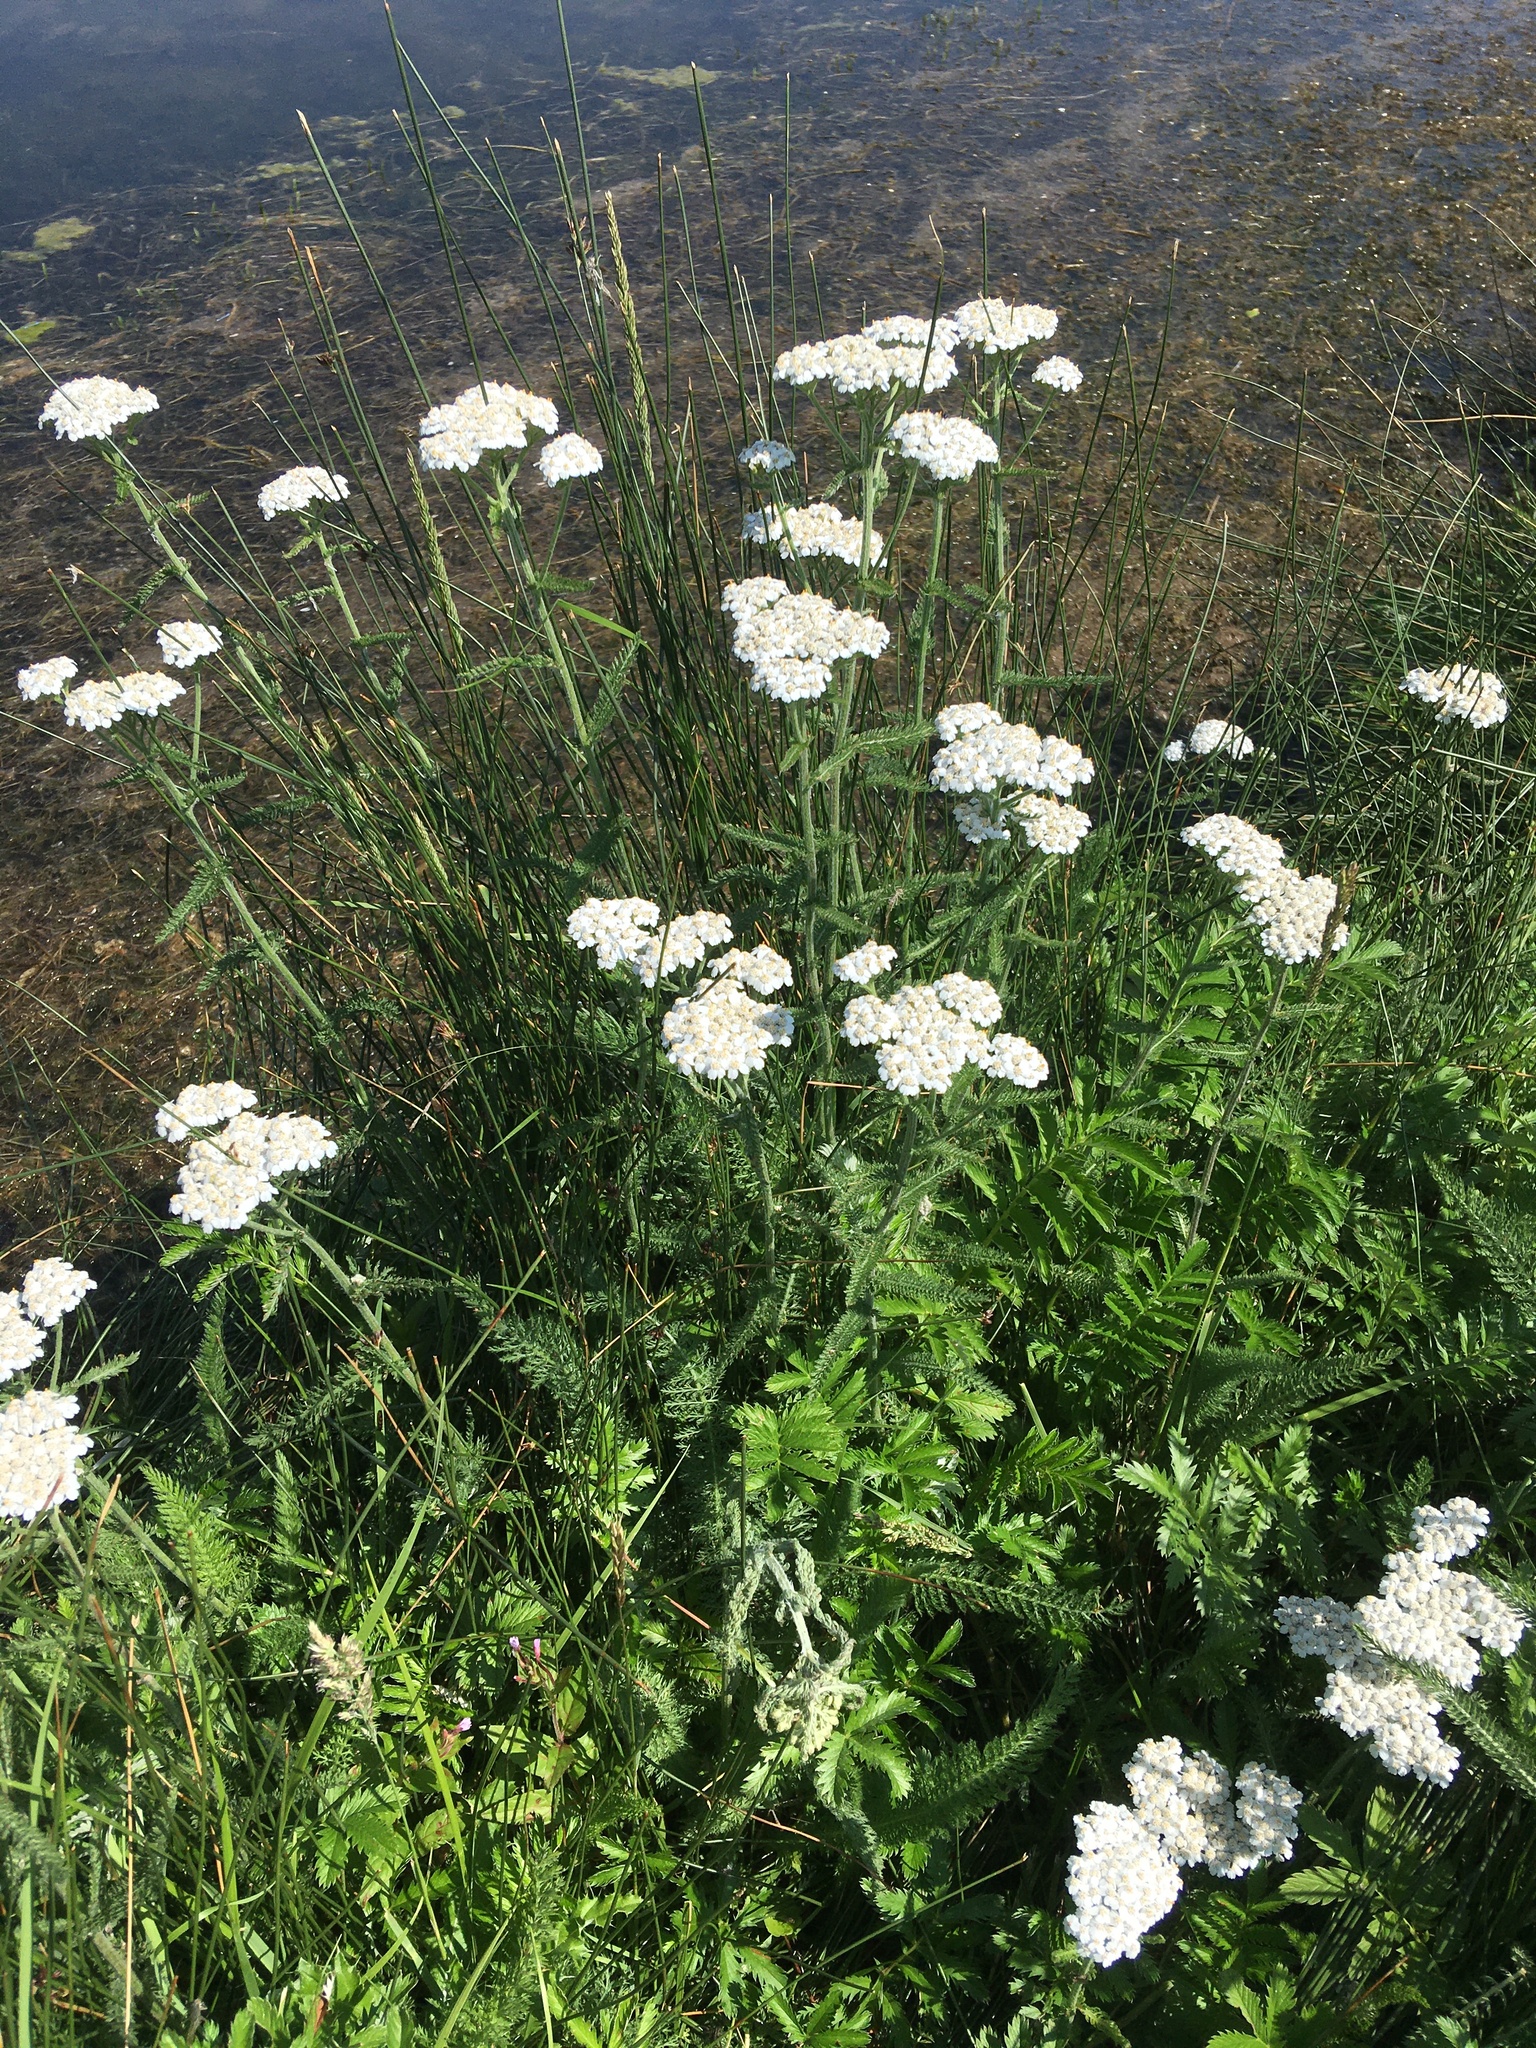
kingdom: Plantae
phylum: Tracheophyta
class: Magnoliopsida
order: Asterales
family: Asteraceae
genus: Achillea
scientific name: Achillea millefolium
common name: Yarrow
